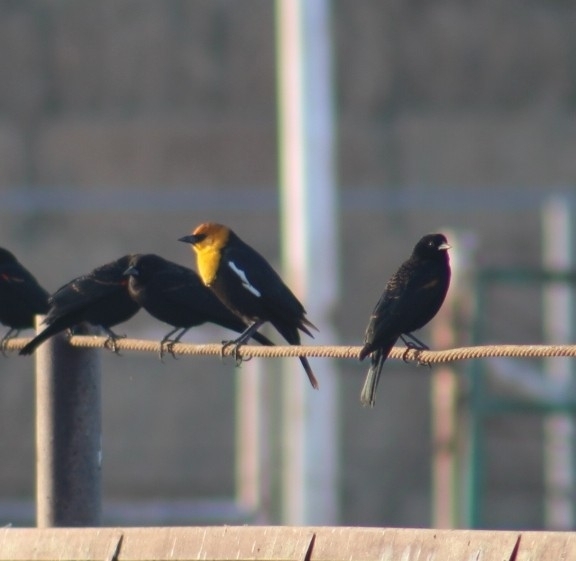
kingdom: Animalia
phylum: Chordata
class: Aves
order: Passeriformes
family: Icteridae
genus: Xanthocephalus
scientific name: Xanthocephalus xanthocephalus
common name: Yellow-headed blackbird
